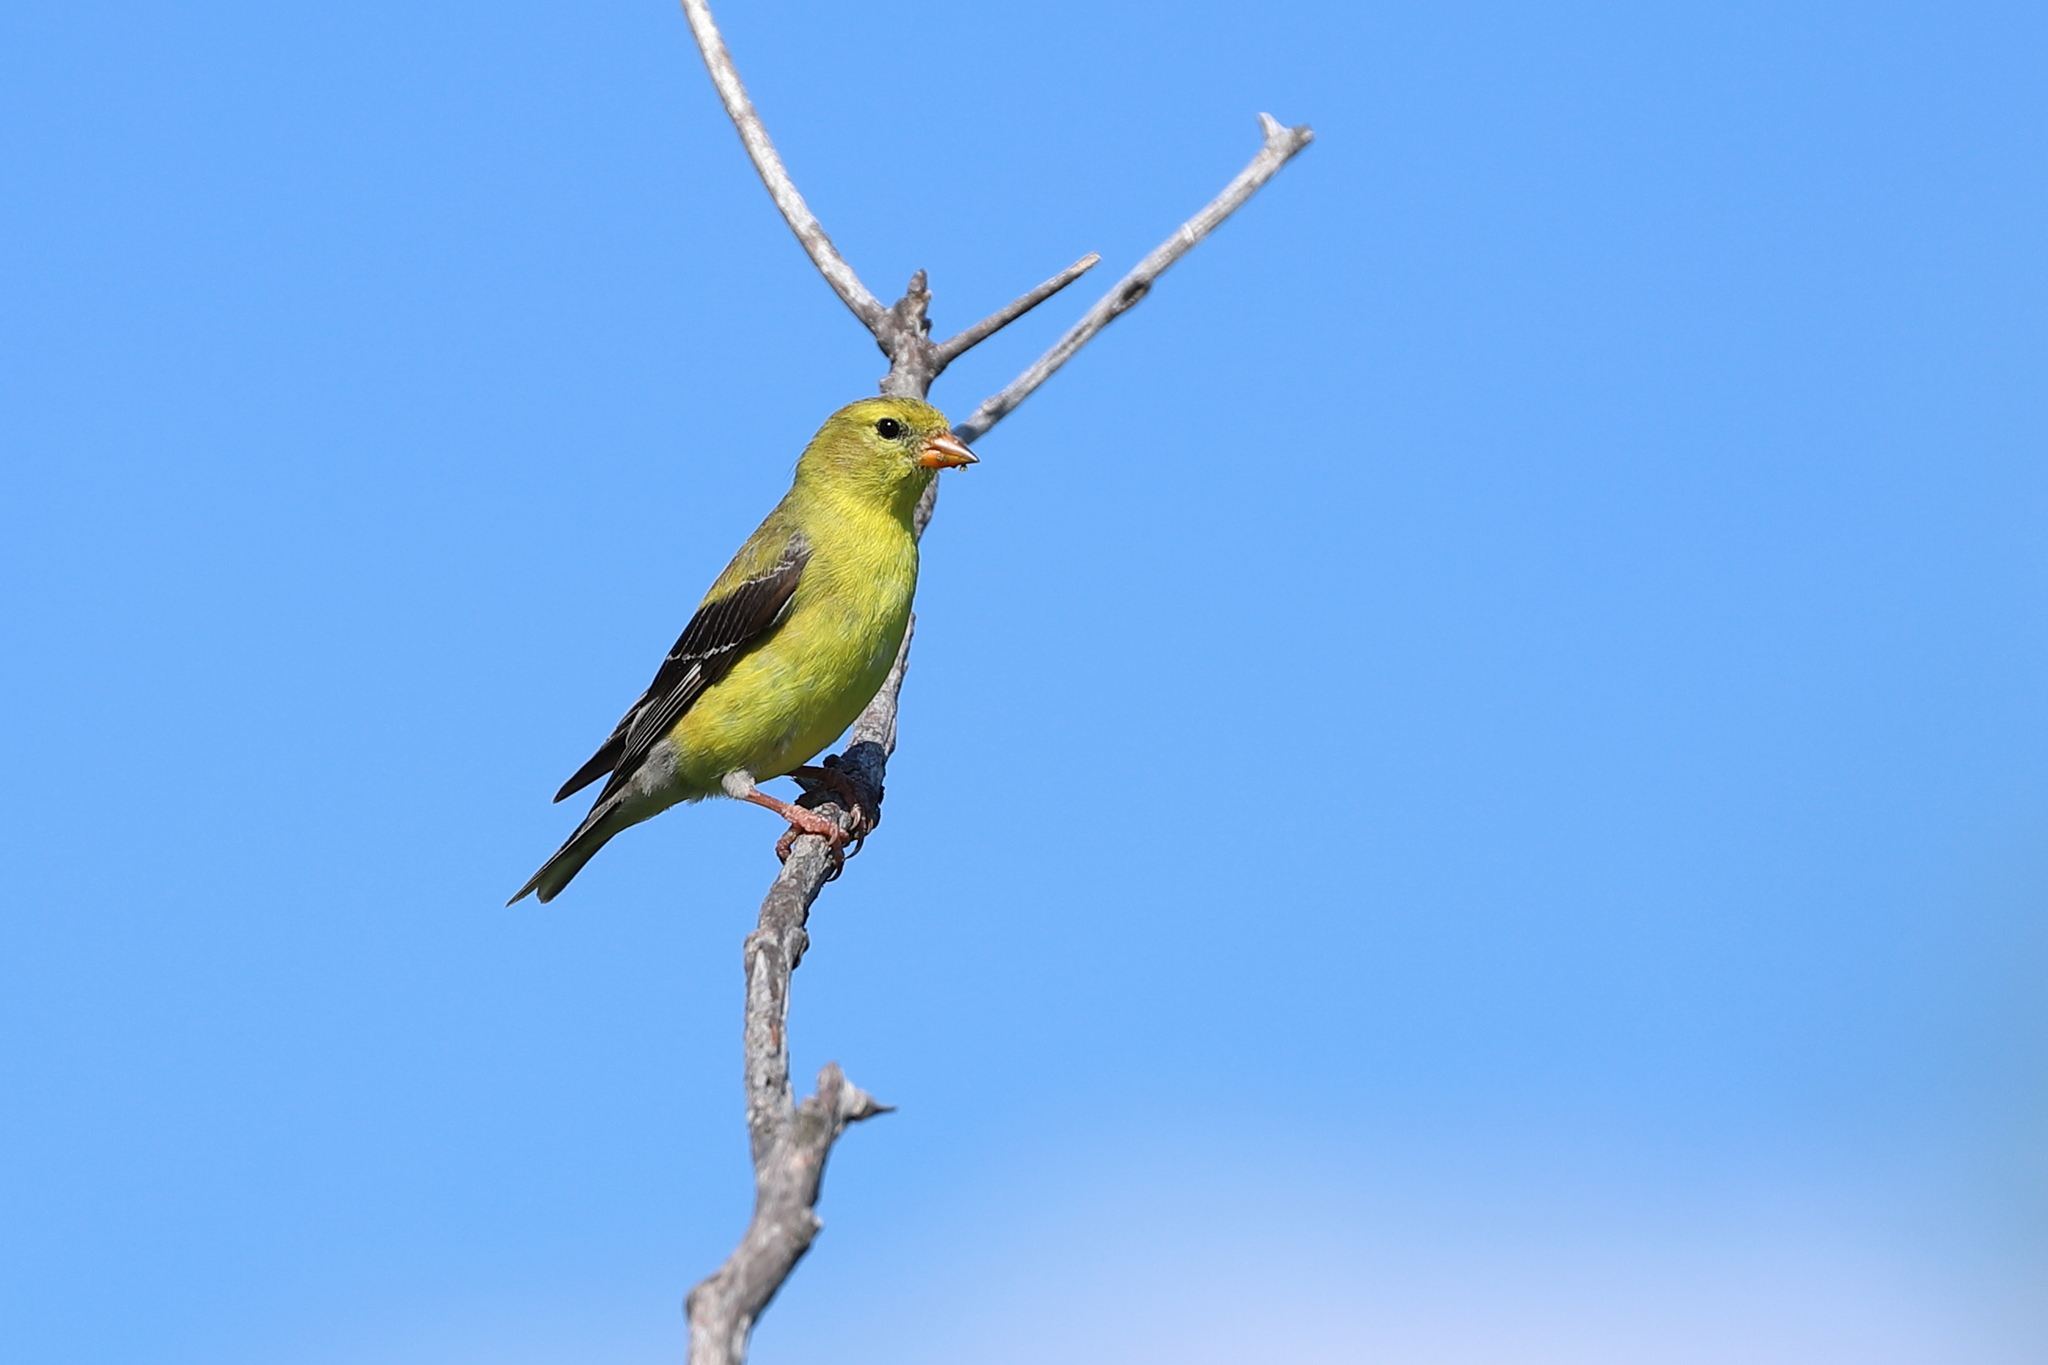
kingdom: Animalia
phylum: Chordata
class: Aves
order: Passeriformes
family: Fringillidae
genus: Spinus
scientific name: Spinus tristis
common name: American goldfinch
